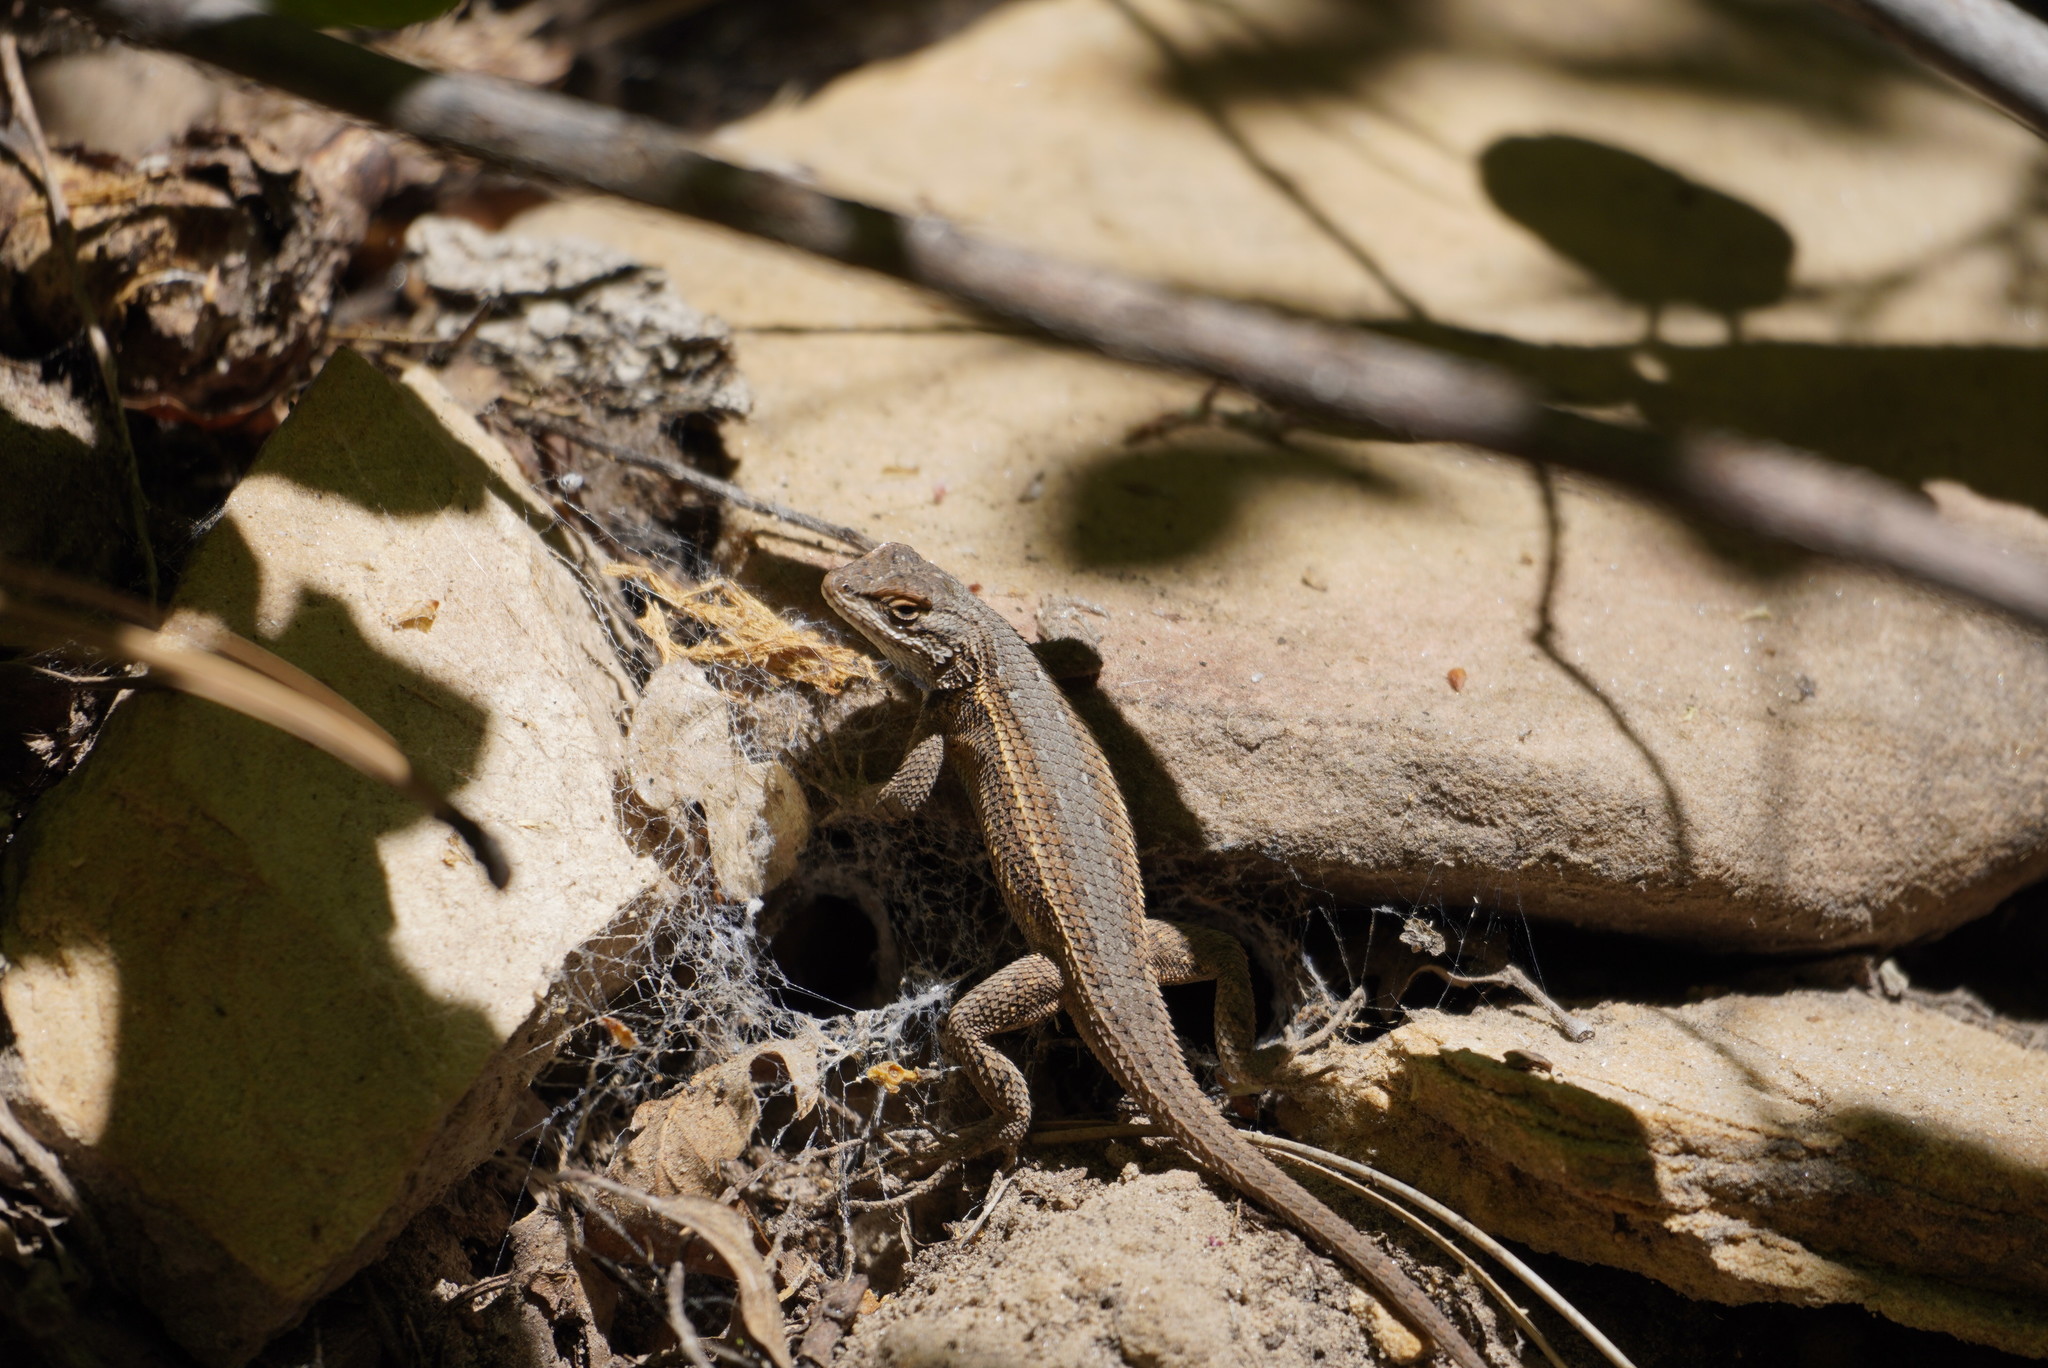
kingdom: Animalia
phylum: Chordata
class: Squamata
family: Phrynosomatidae
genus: Sceloporus
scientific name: Sceloporus tristichus
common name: Plateau fence lizard
